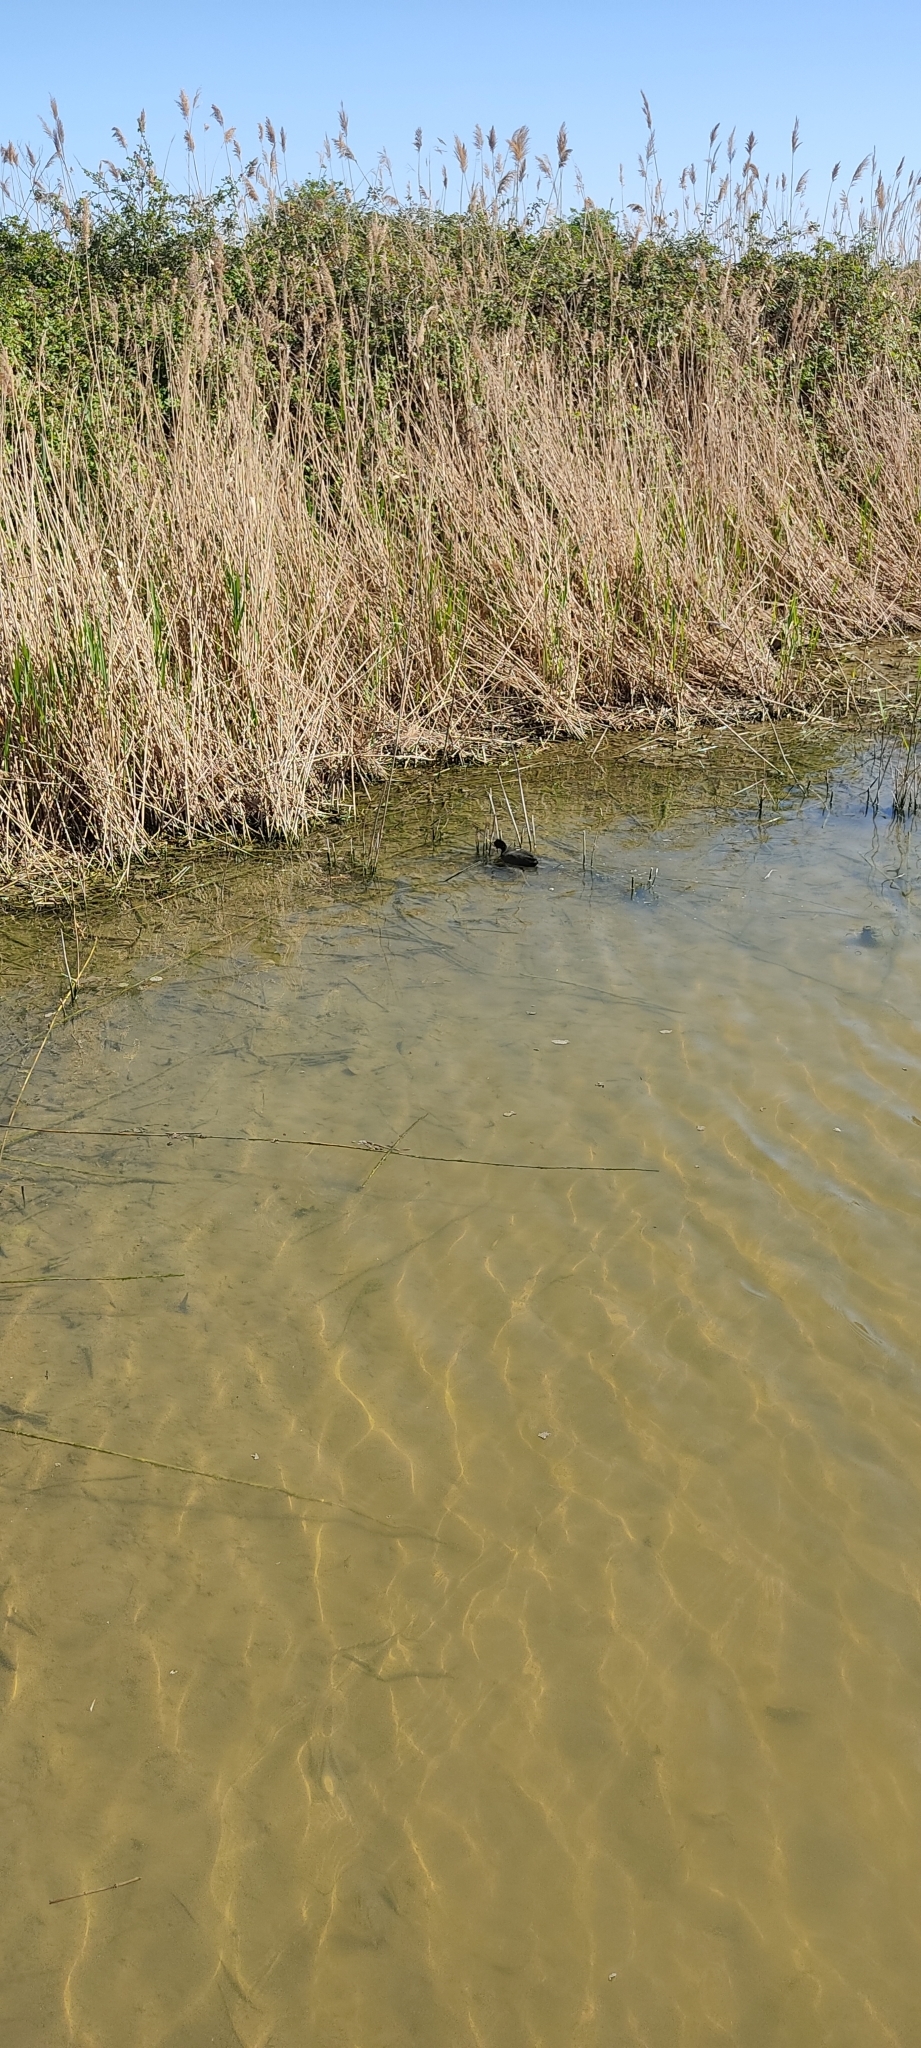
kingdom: Animalia
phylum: Chordata
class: Aves
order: Gruiformes
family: Rallidae
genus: Fulica
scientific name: Fulica atra
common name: Eurasian coot
